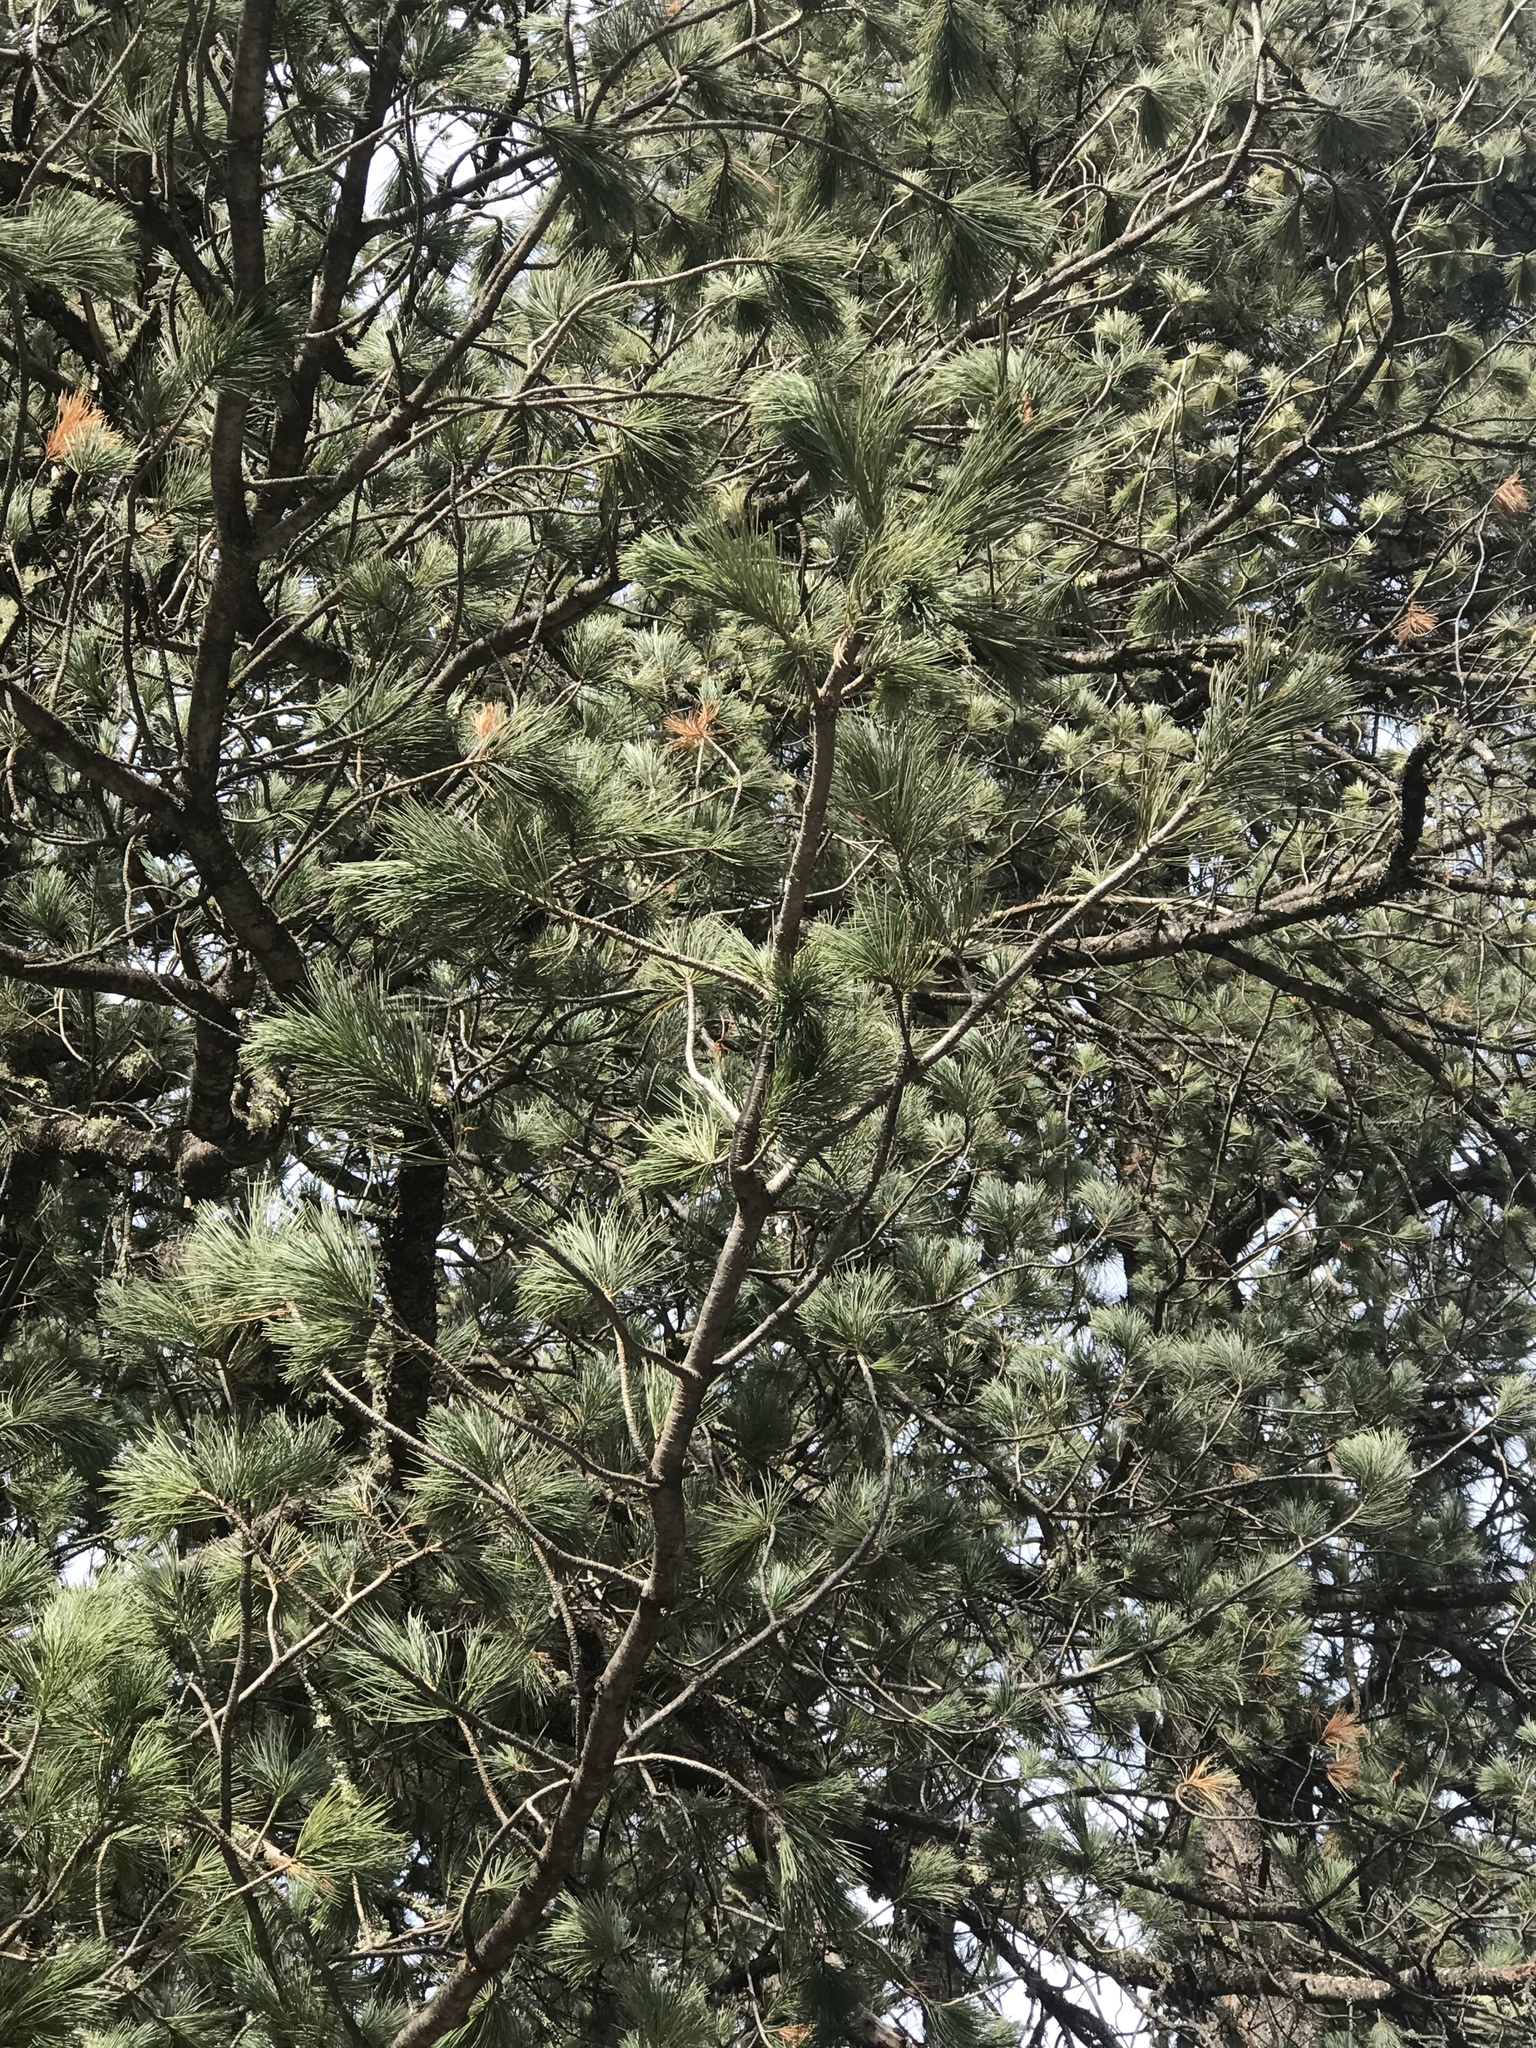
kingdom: Plantae
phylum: Tracheophyta
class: Pinopsida
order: Pinales
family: Pinaceae
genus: Pinus
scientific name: Pinus strobiformis
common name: Southwestern white pine
